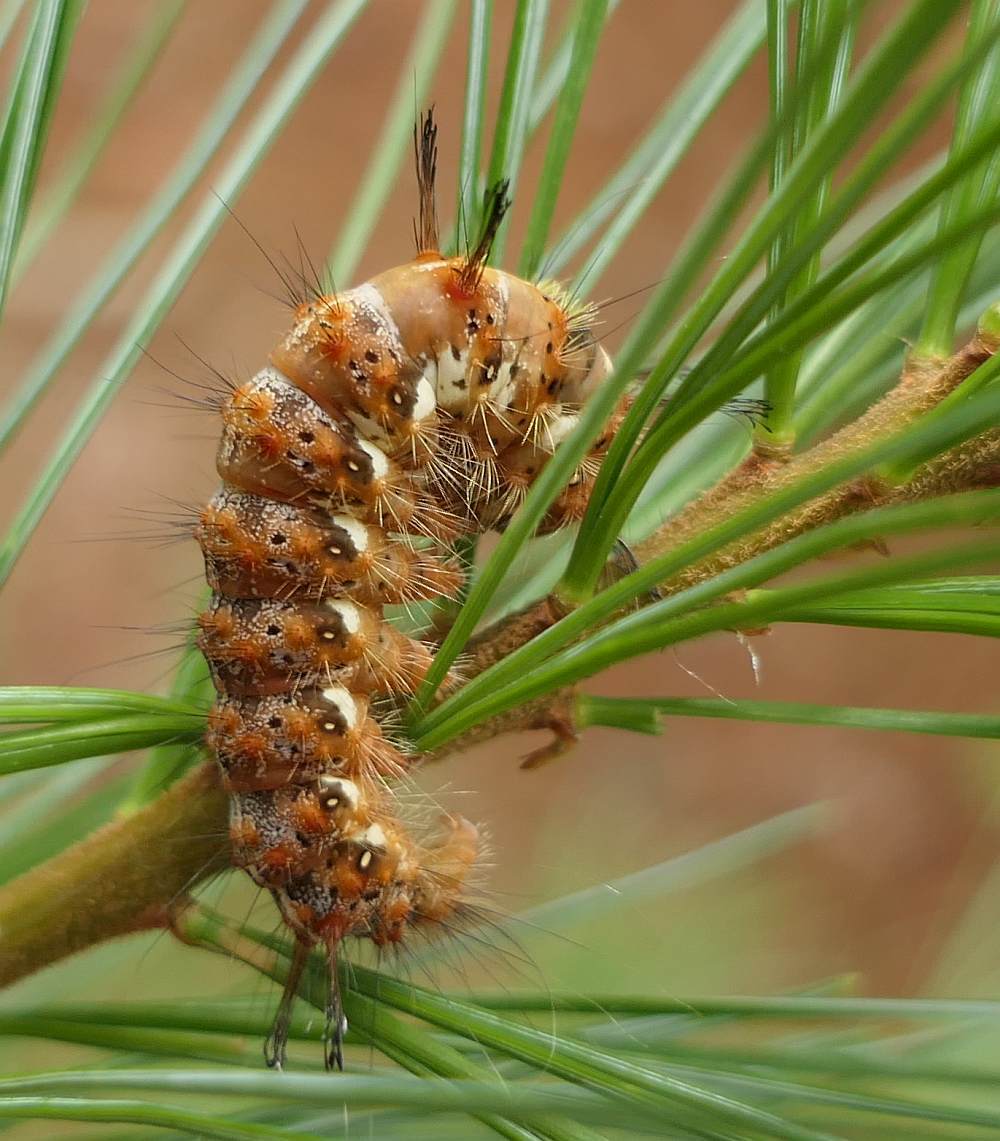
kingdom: Animalia
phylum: Arthropoda
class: Insecta
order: Lepidoptera
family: Noctuidae
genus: Panthea
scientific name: Panthea furcilla
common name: Eastern panthea moth
